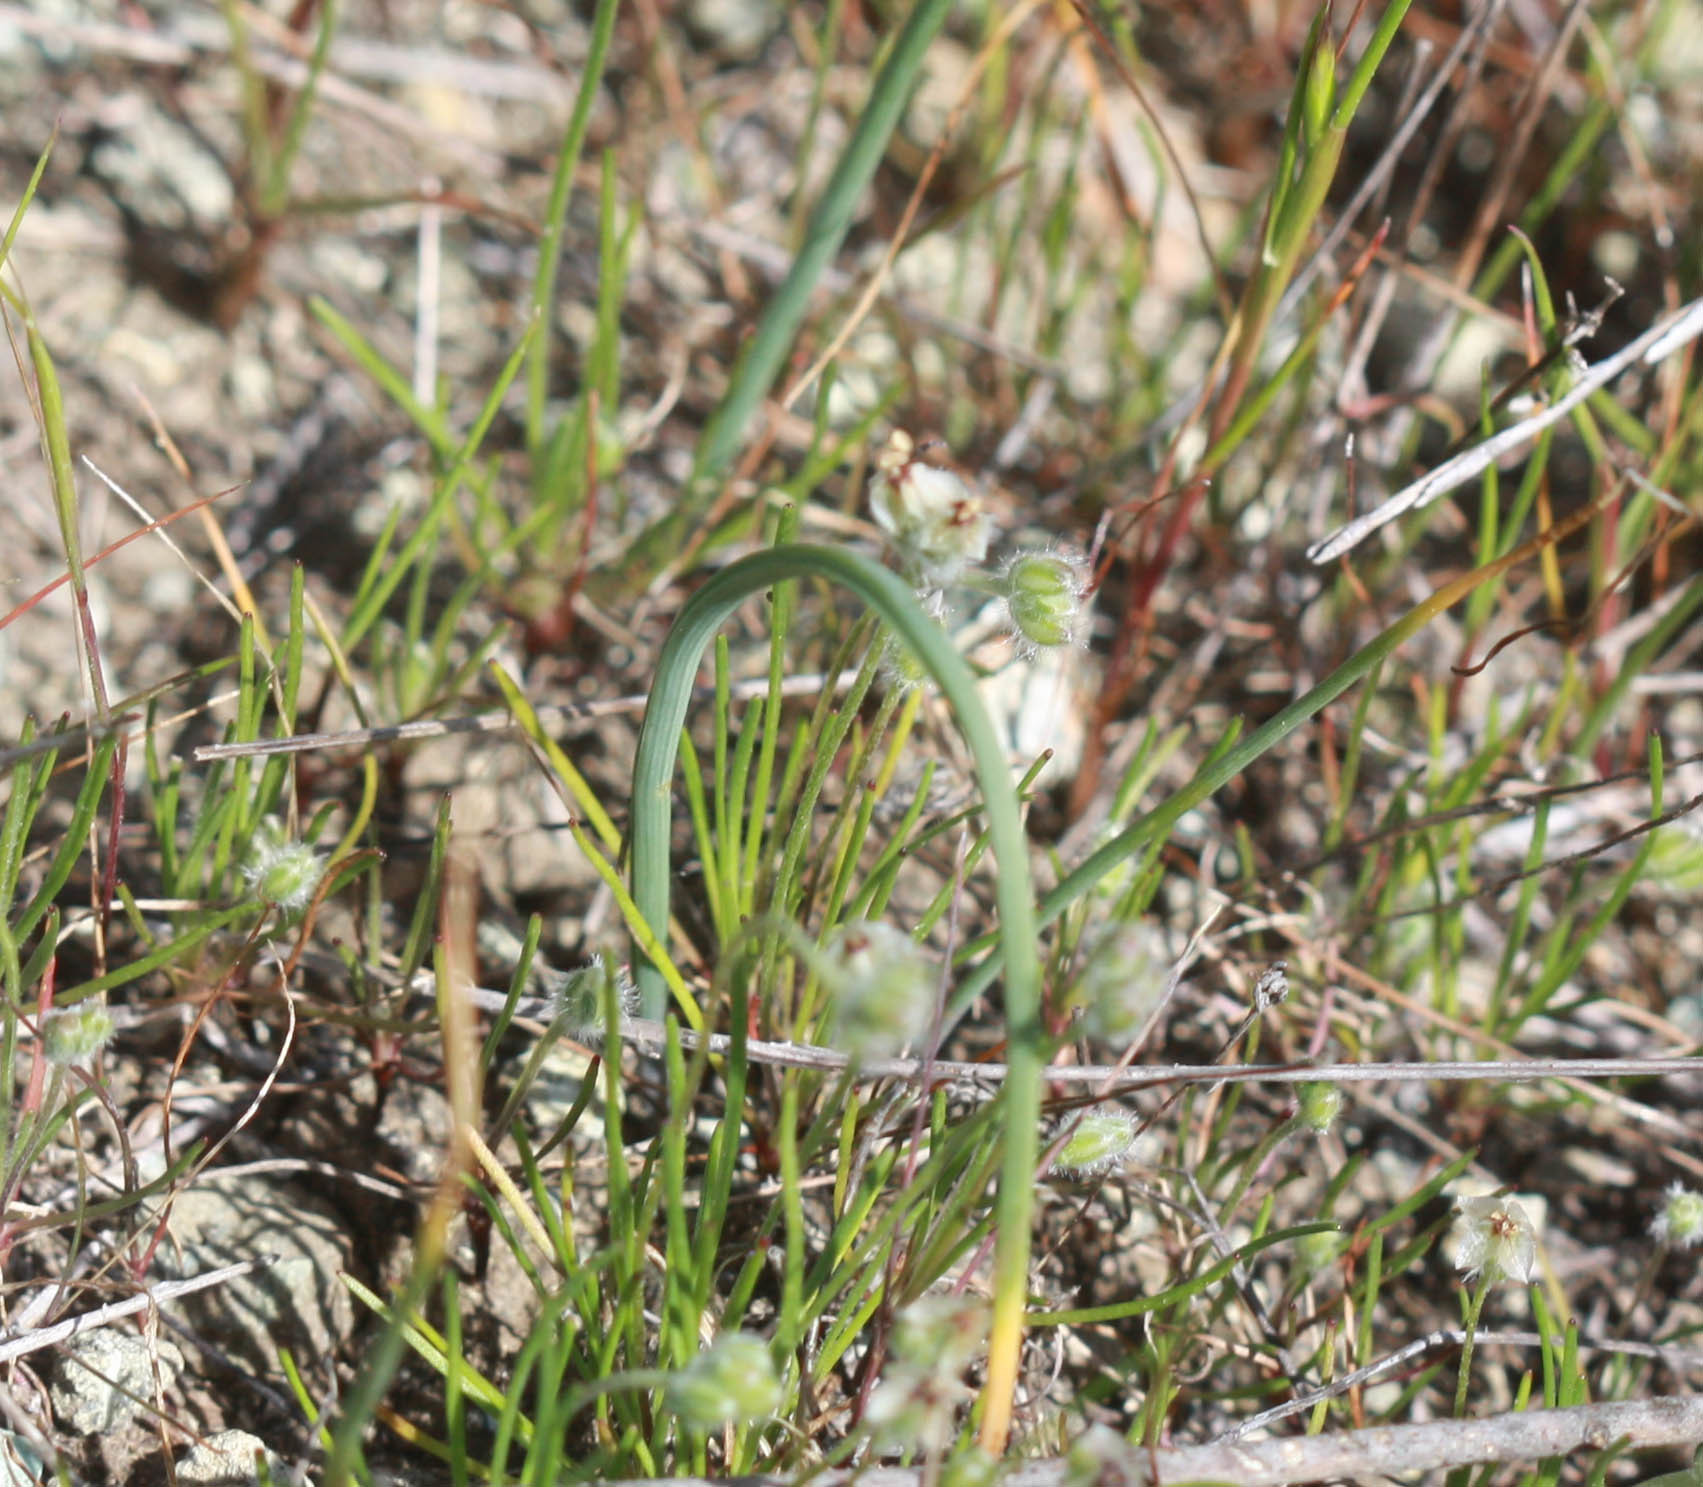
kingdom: Plantae
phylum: Tracheophyta
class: Magnoliopsida
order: Lamiales
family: Plantaginaceae
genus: Plantago
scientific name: Plantago erecta
